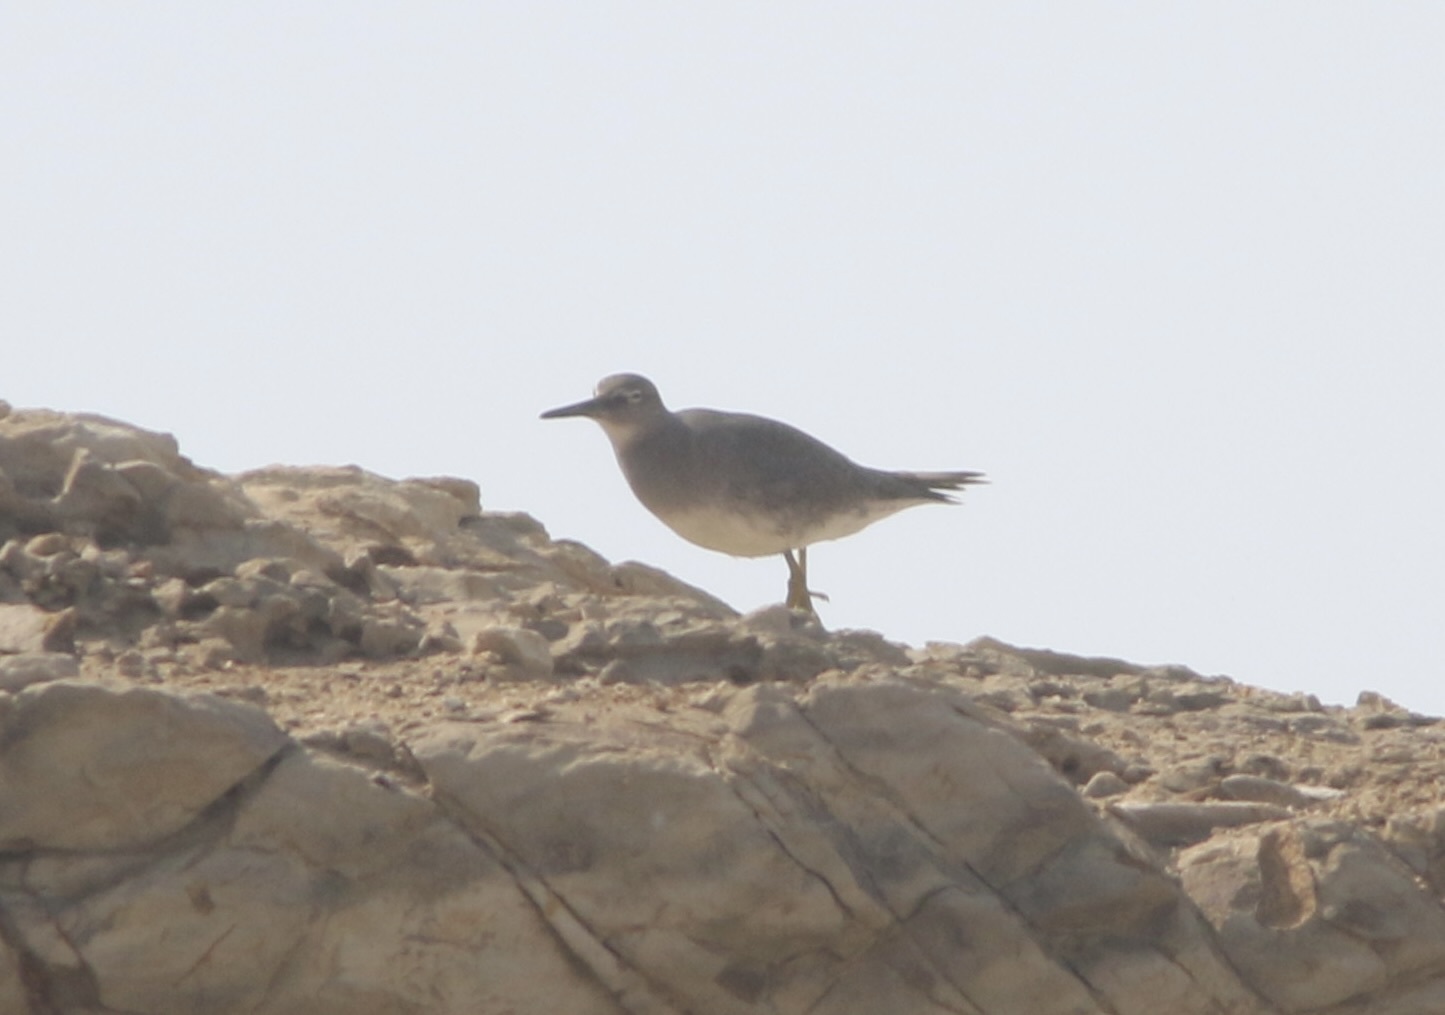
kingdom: Animalia
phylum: Chordata
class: Aves
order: Charadriiformes
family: Scolopacidae
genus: Tringa
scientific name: Tringa incana
